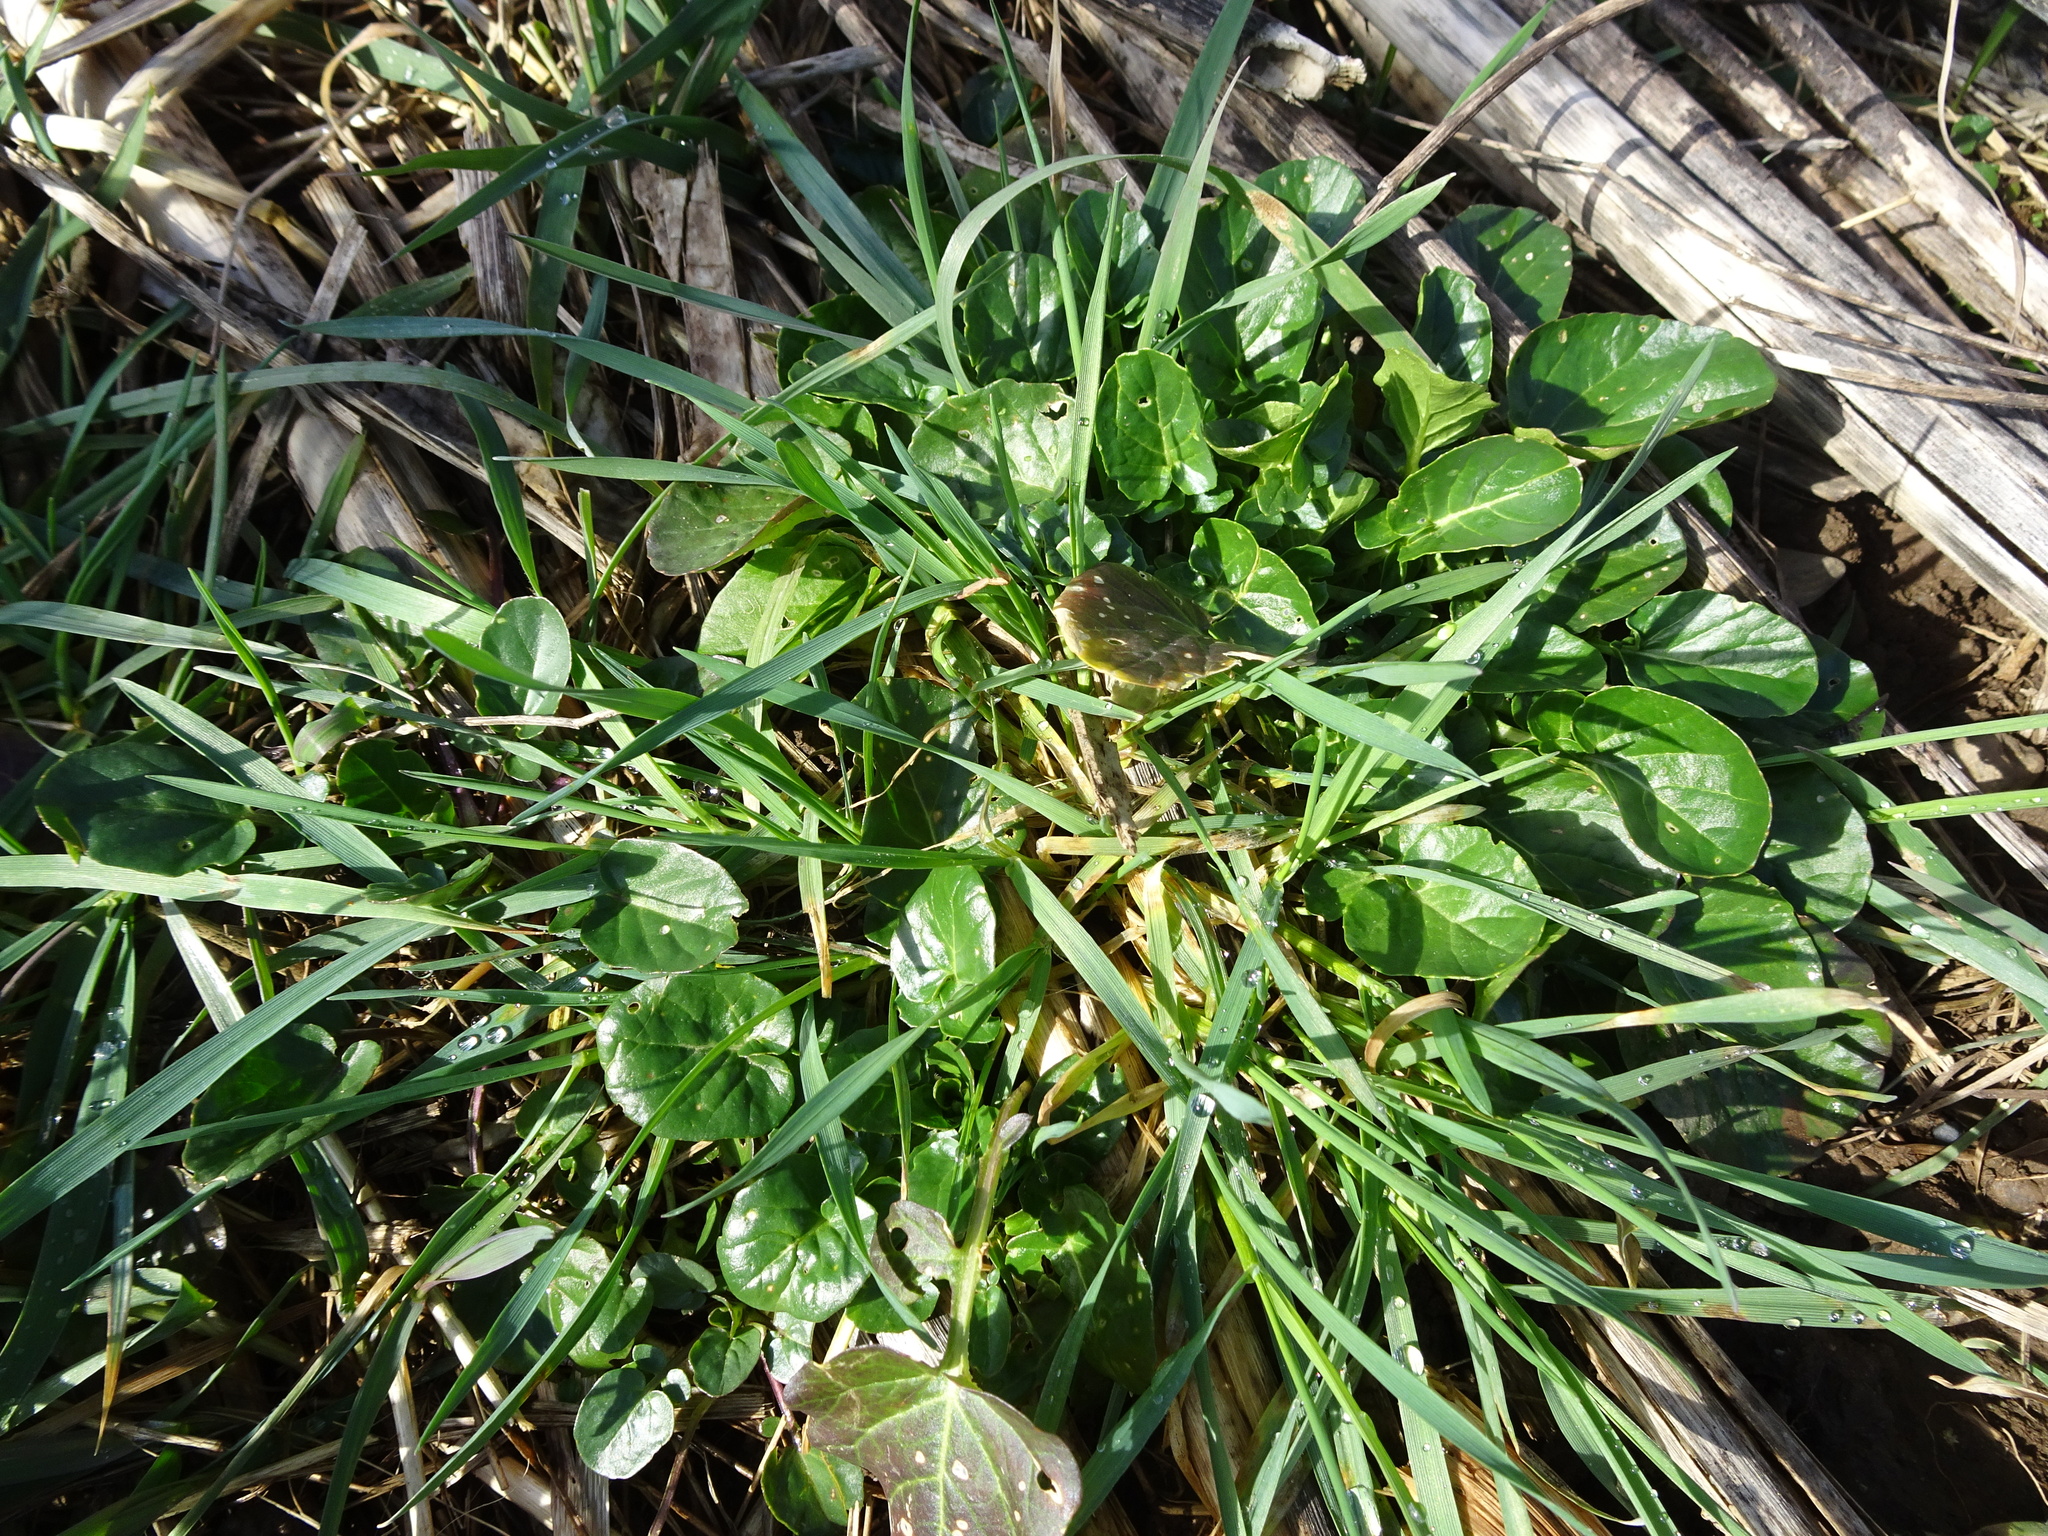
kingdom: Plantae
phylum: Tracheophyta
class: Magnoliopsida
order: Brassicales
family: Brassicaceae
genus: Barbarea
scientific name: Barbarea vulgaris
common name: Cressy-greens
